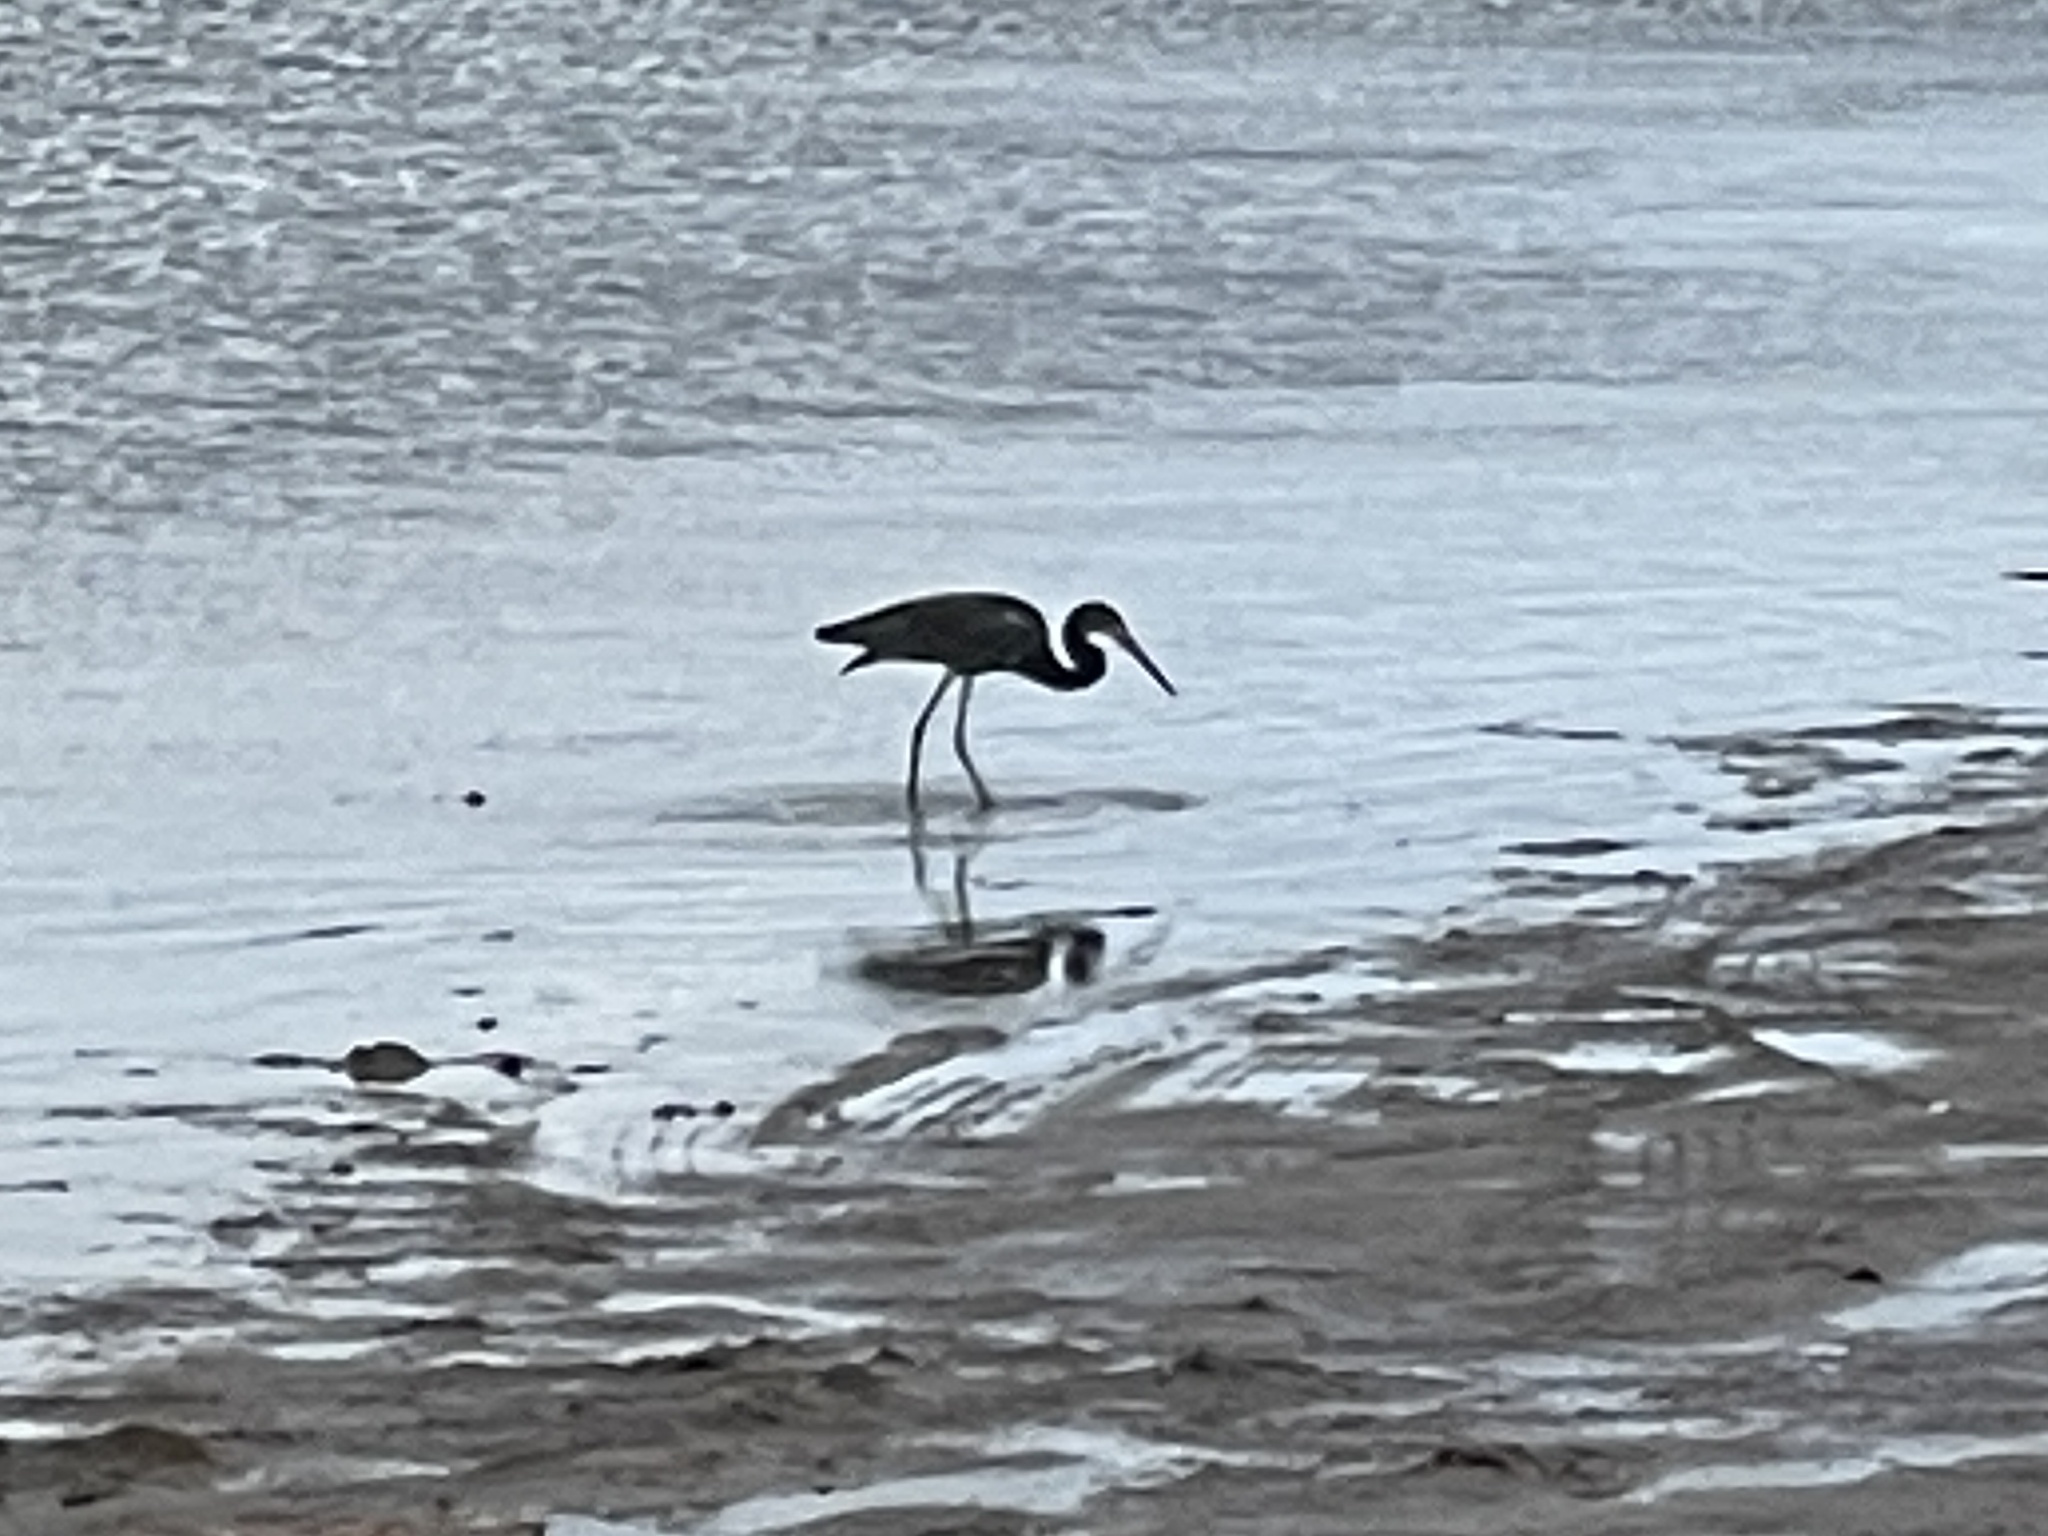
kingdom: Animalia
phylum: Chordata
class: Aves
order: Pelecaniformes
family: Ardeidae
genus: Egretta
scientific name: Egretta tricolor
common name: Tricolored heron
